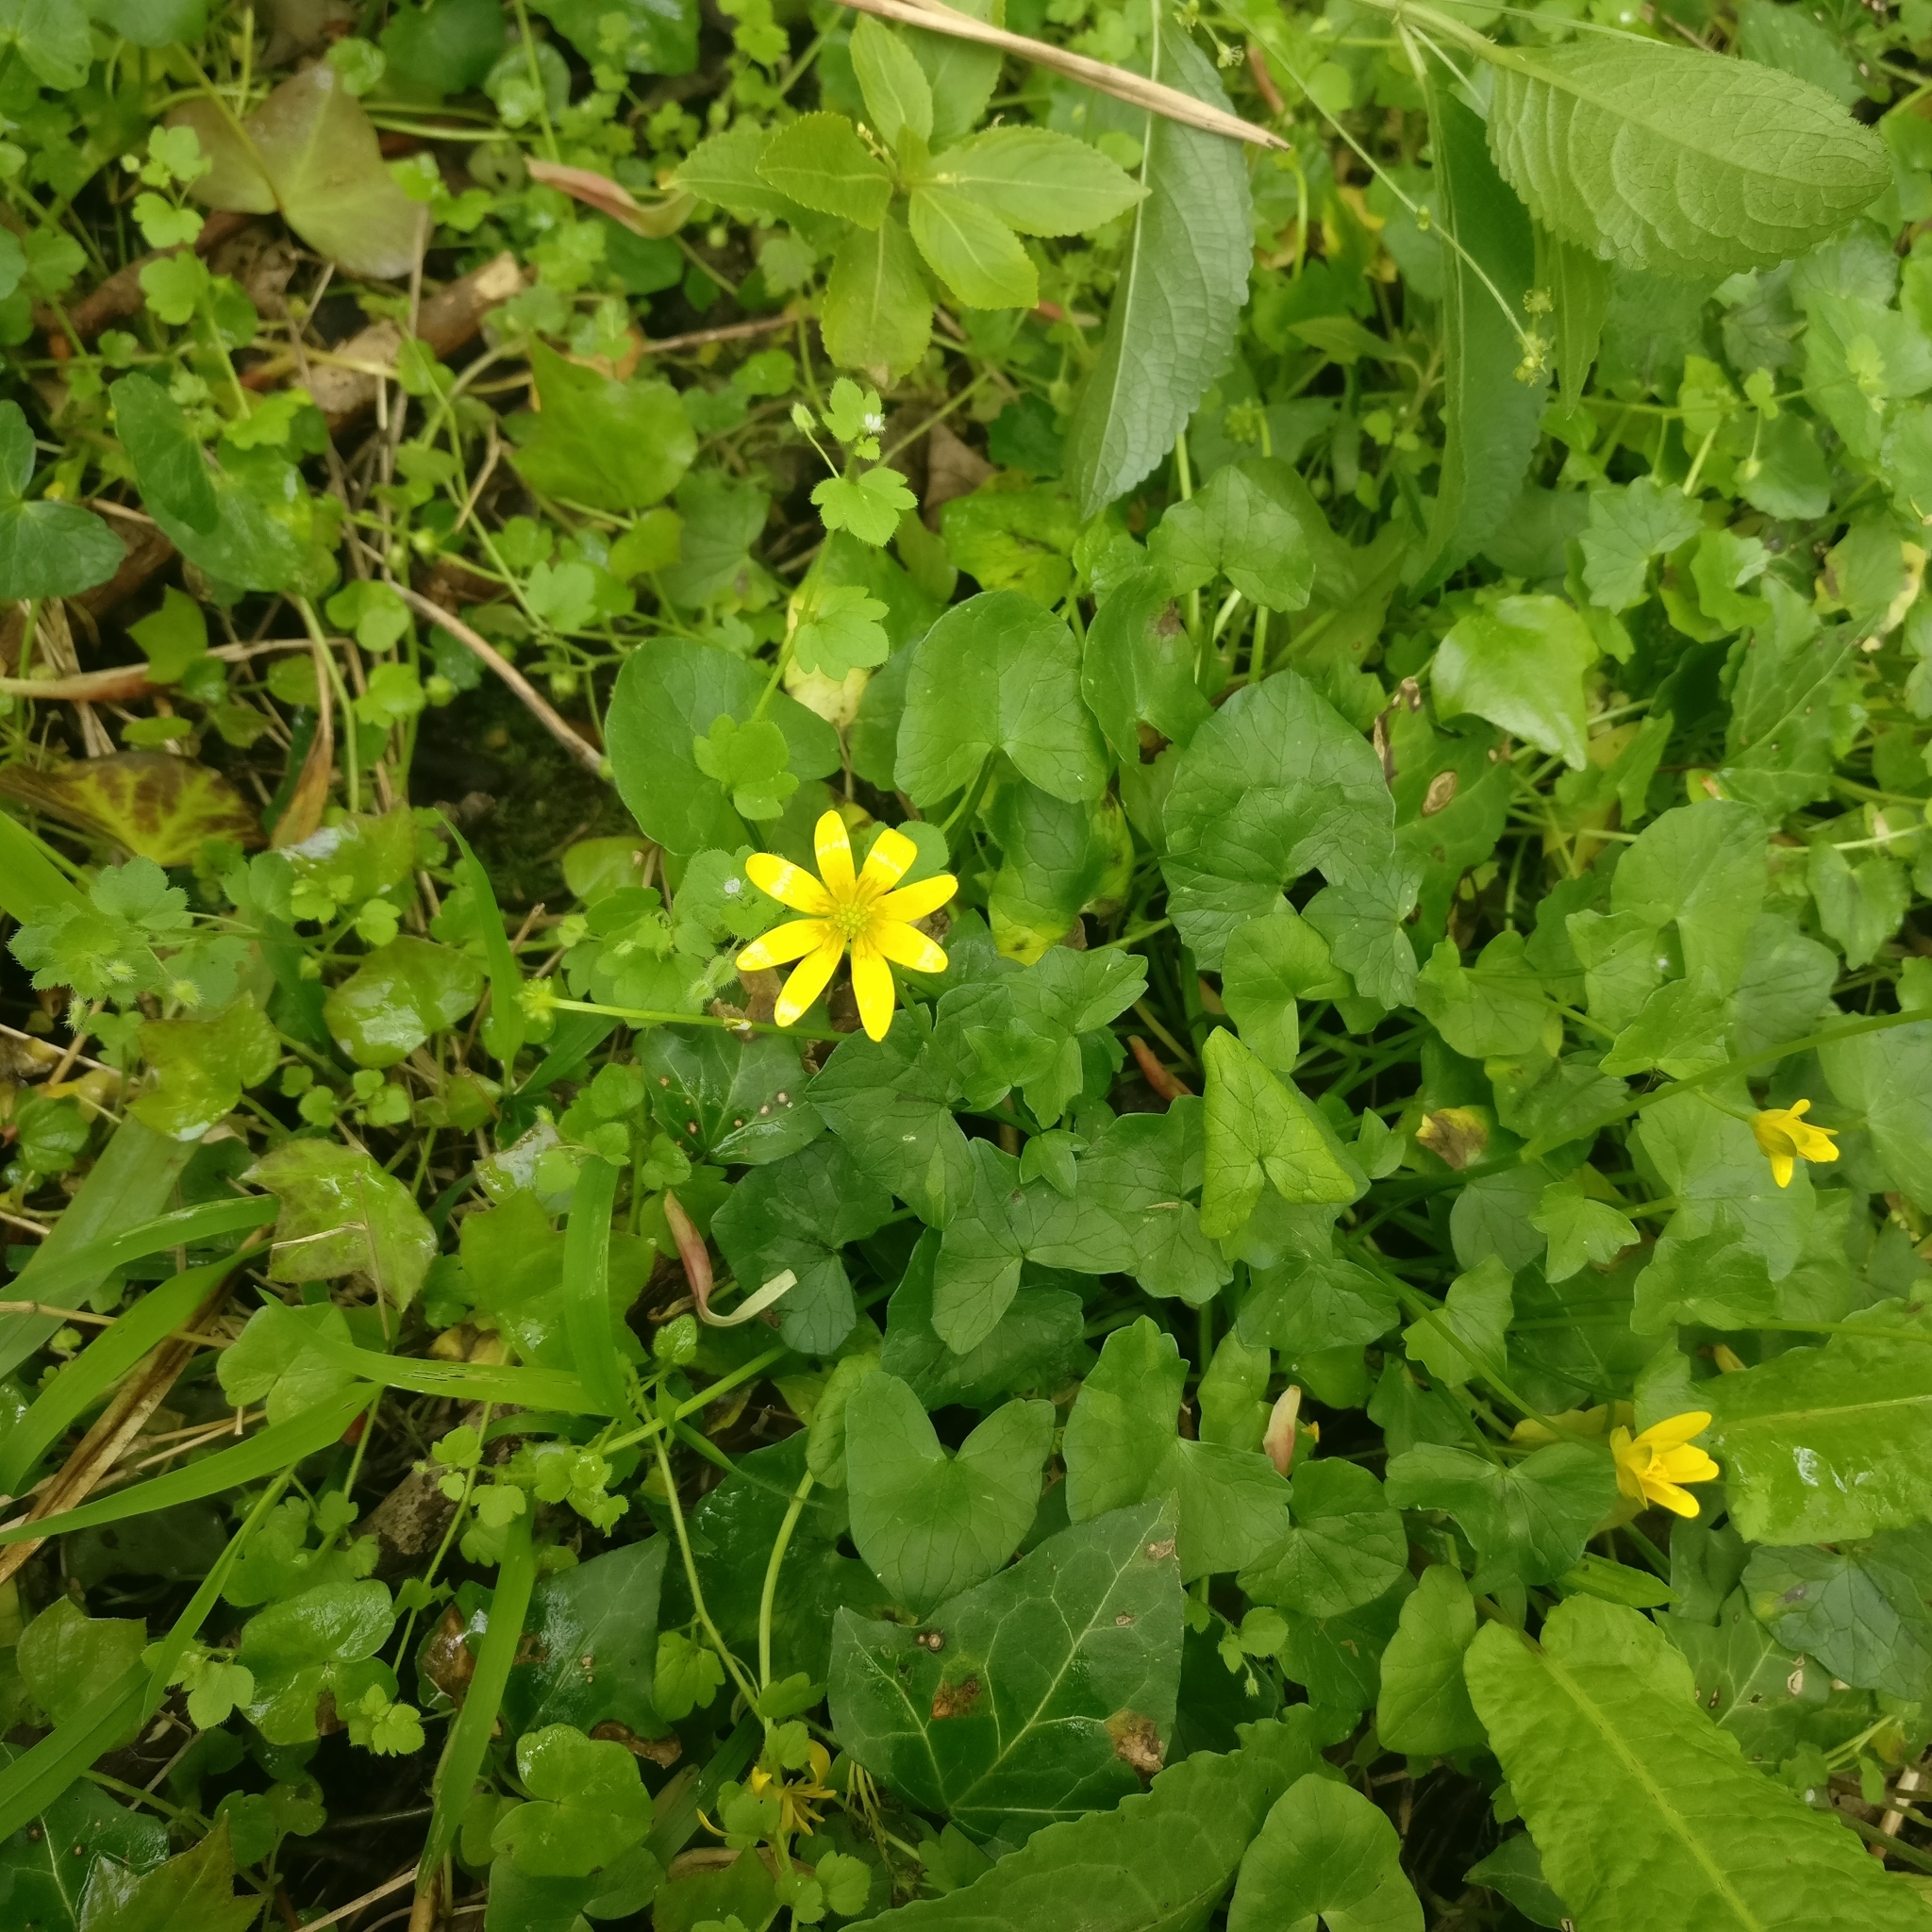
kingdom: Plantae
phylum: Tracheophyta
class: Magnoliopsida
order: Ranunculales
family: Ranunculaceae
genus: Ficaria
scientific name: Ficaria verna
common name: Lesser celandine
